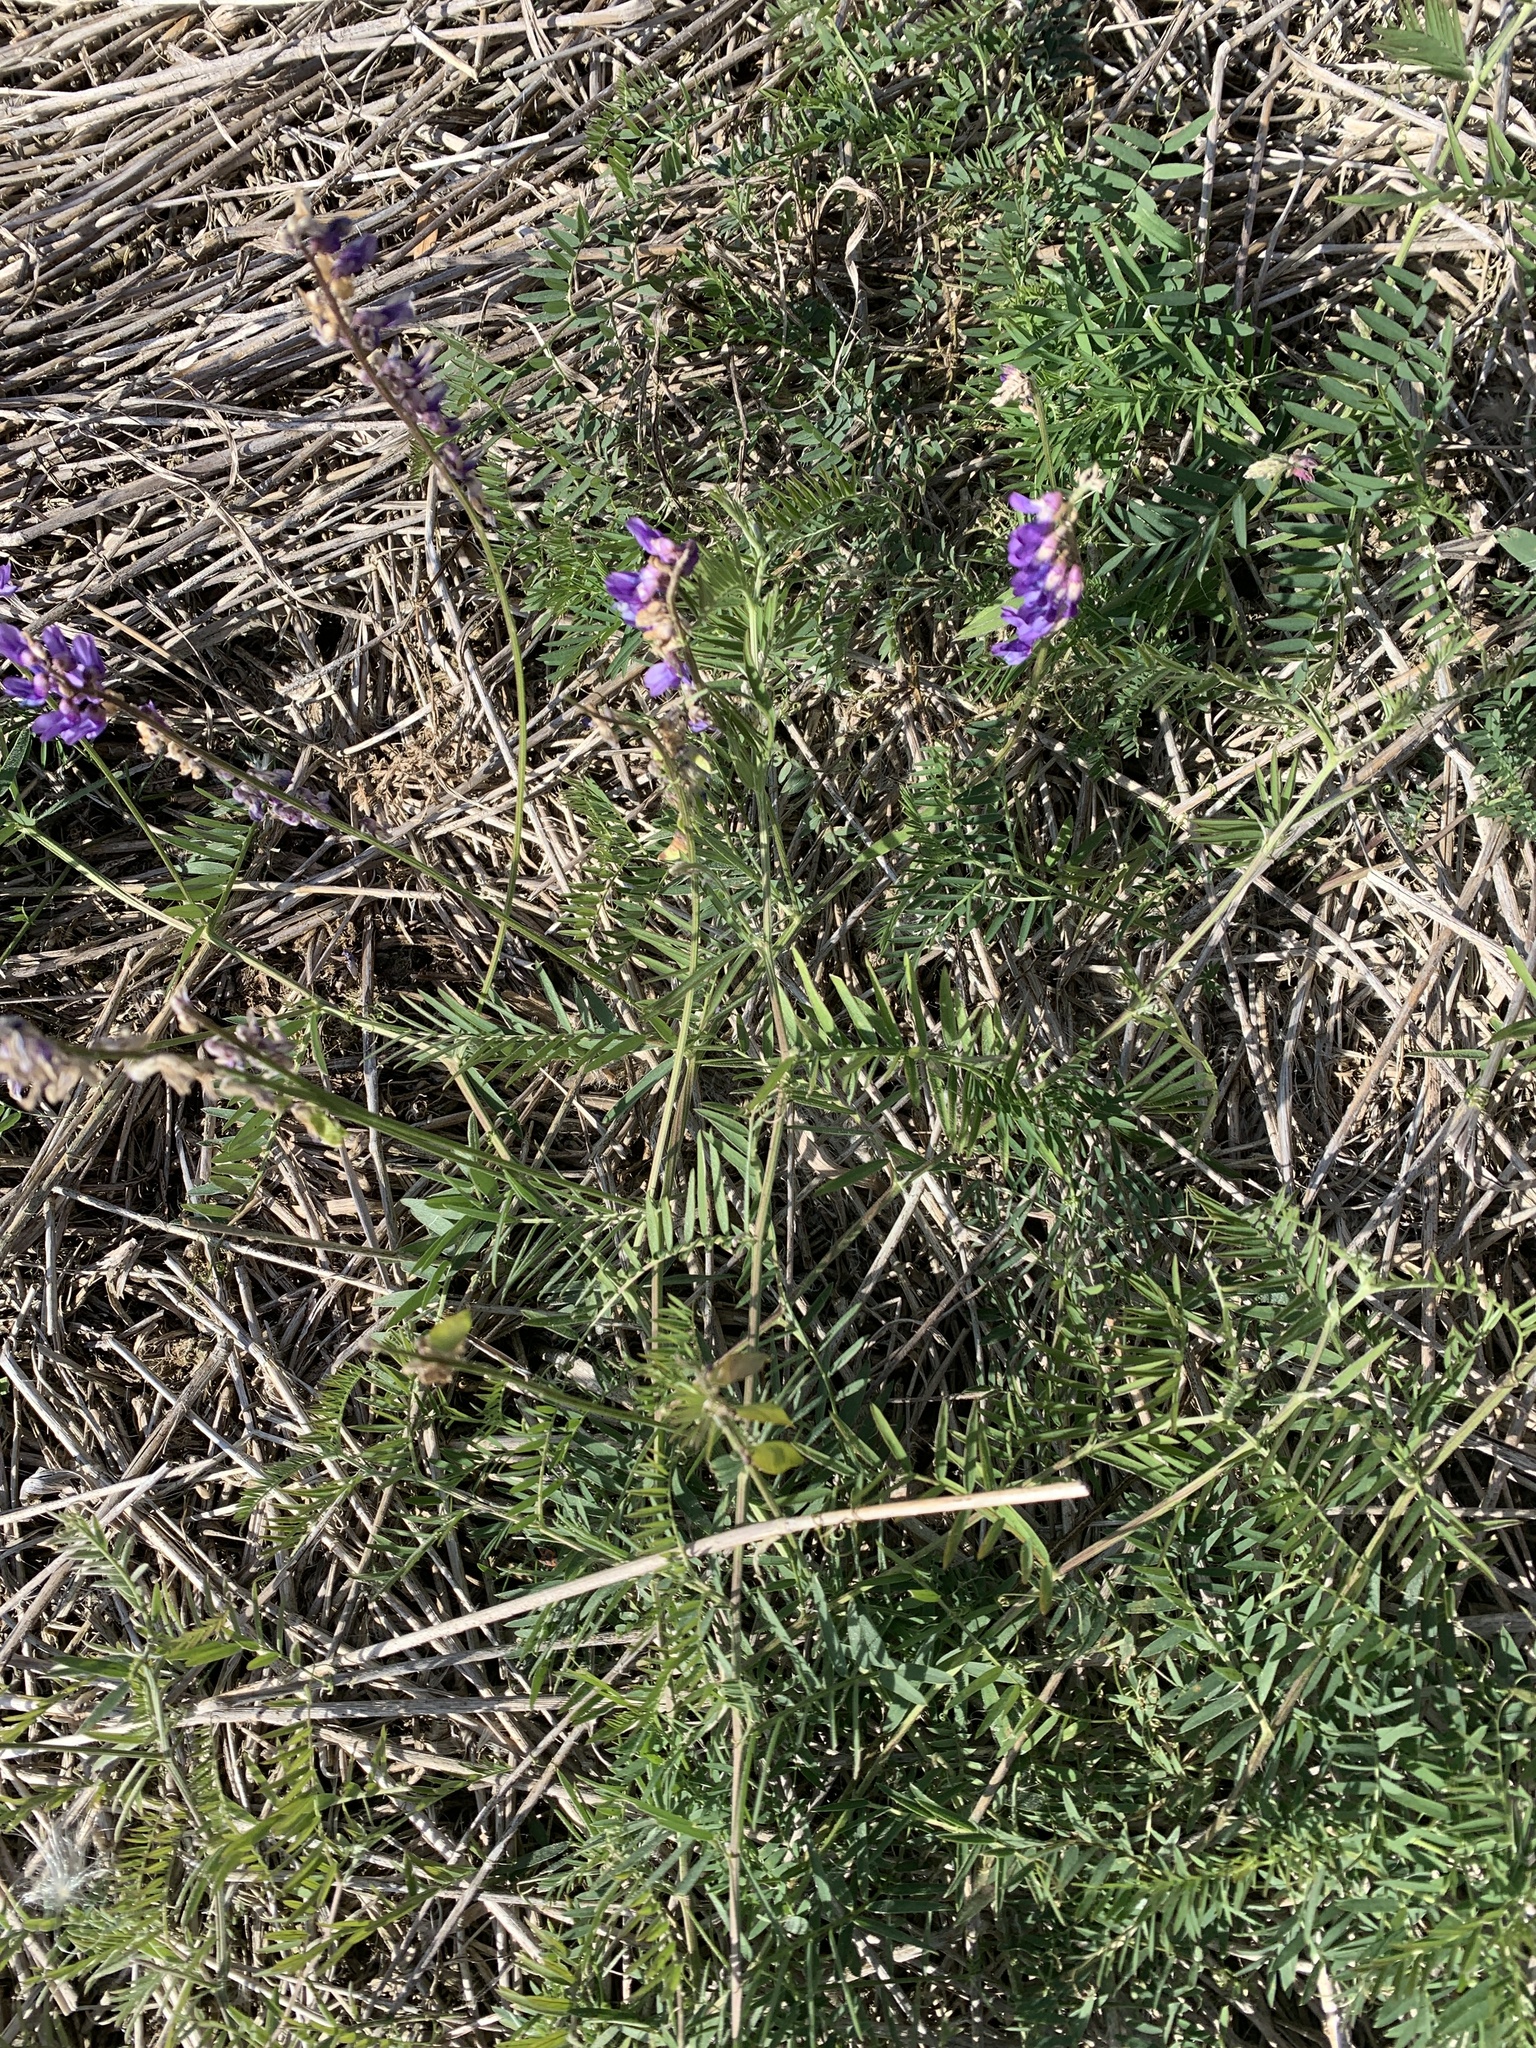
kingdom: Plantae
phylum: Tracheophyta
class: Magnoliopsida
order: Fabales
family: Fabaceae
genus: Vicia
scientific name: Vicia cracca
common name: Bird vetch
